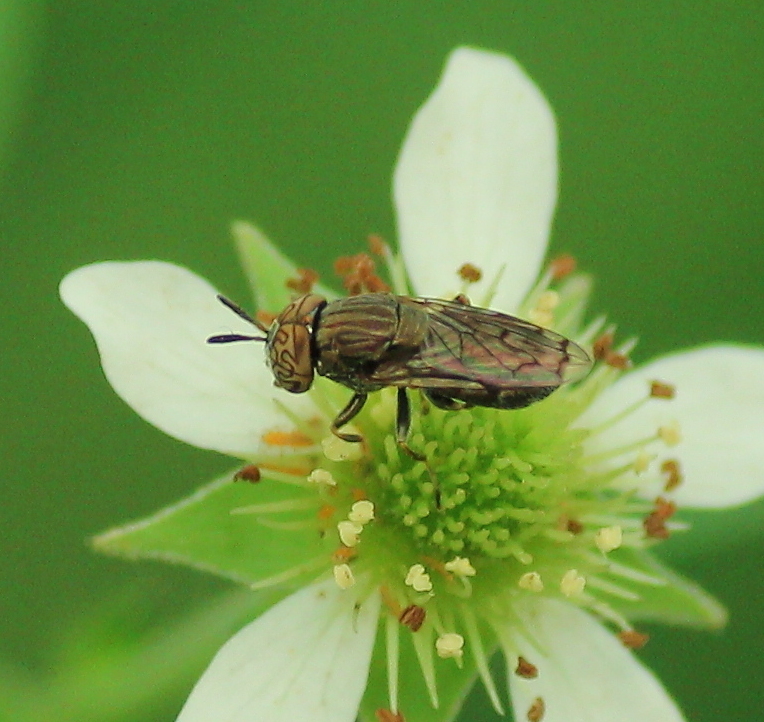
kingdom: Animalia
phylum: Arthropoda
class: Insecta
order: Diptera
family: Syrphidae
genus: Orthonevra
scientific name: Orthonevra nitida
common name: Wavy mucksucker
